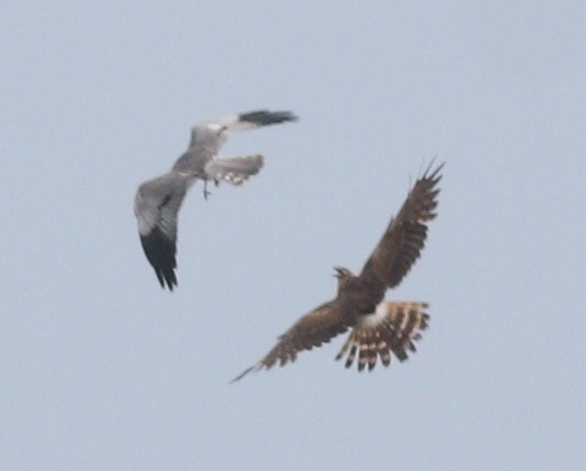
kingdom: Animalia
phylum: Chordata
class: Aves
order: Accipitriformes
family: Accipitridae
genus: Circus
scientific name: Circus pygargus
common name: Montagu's harrier
